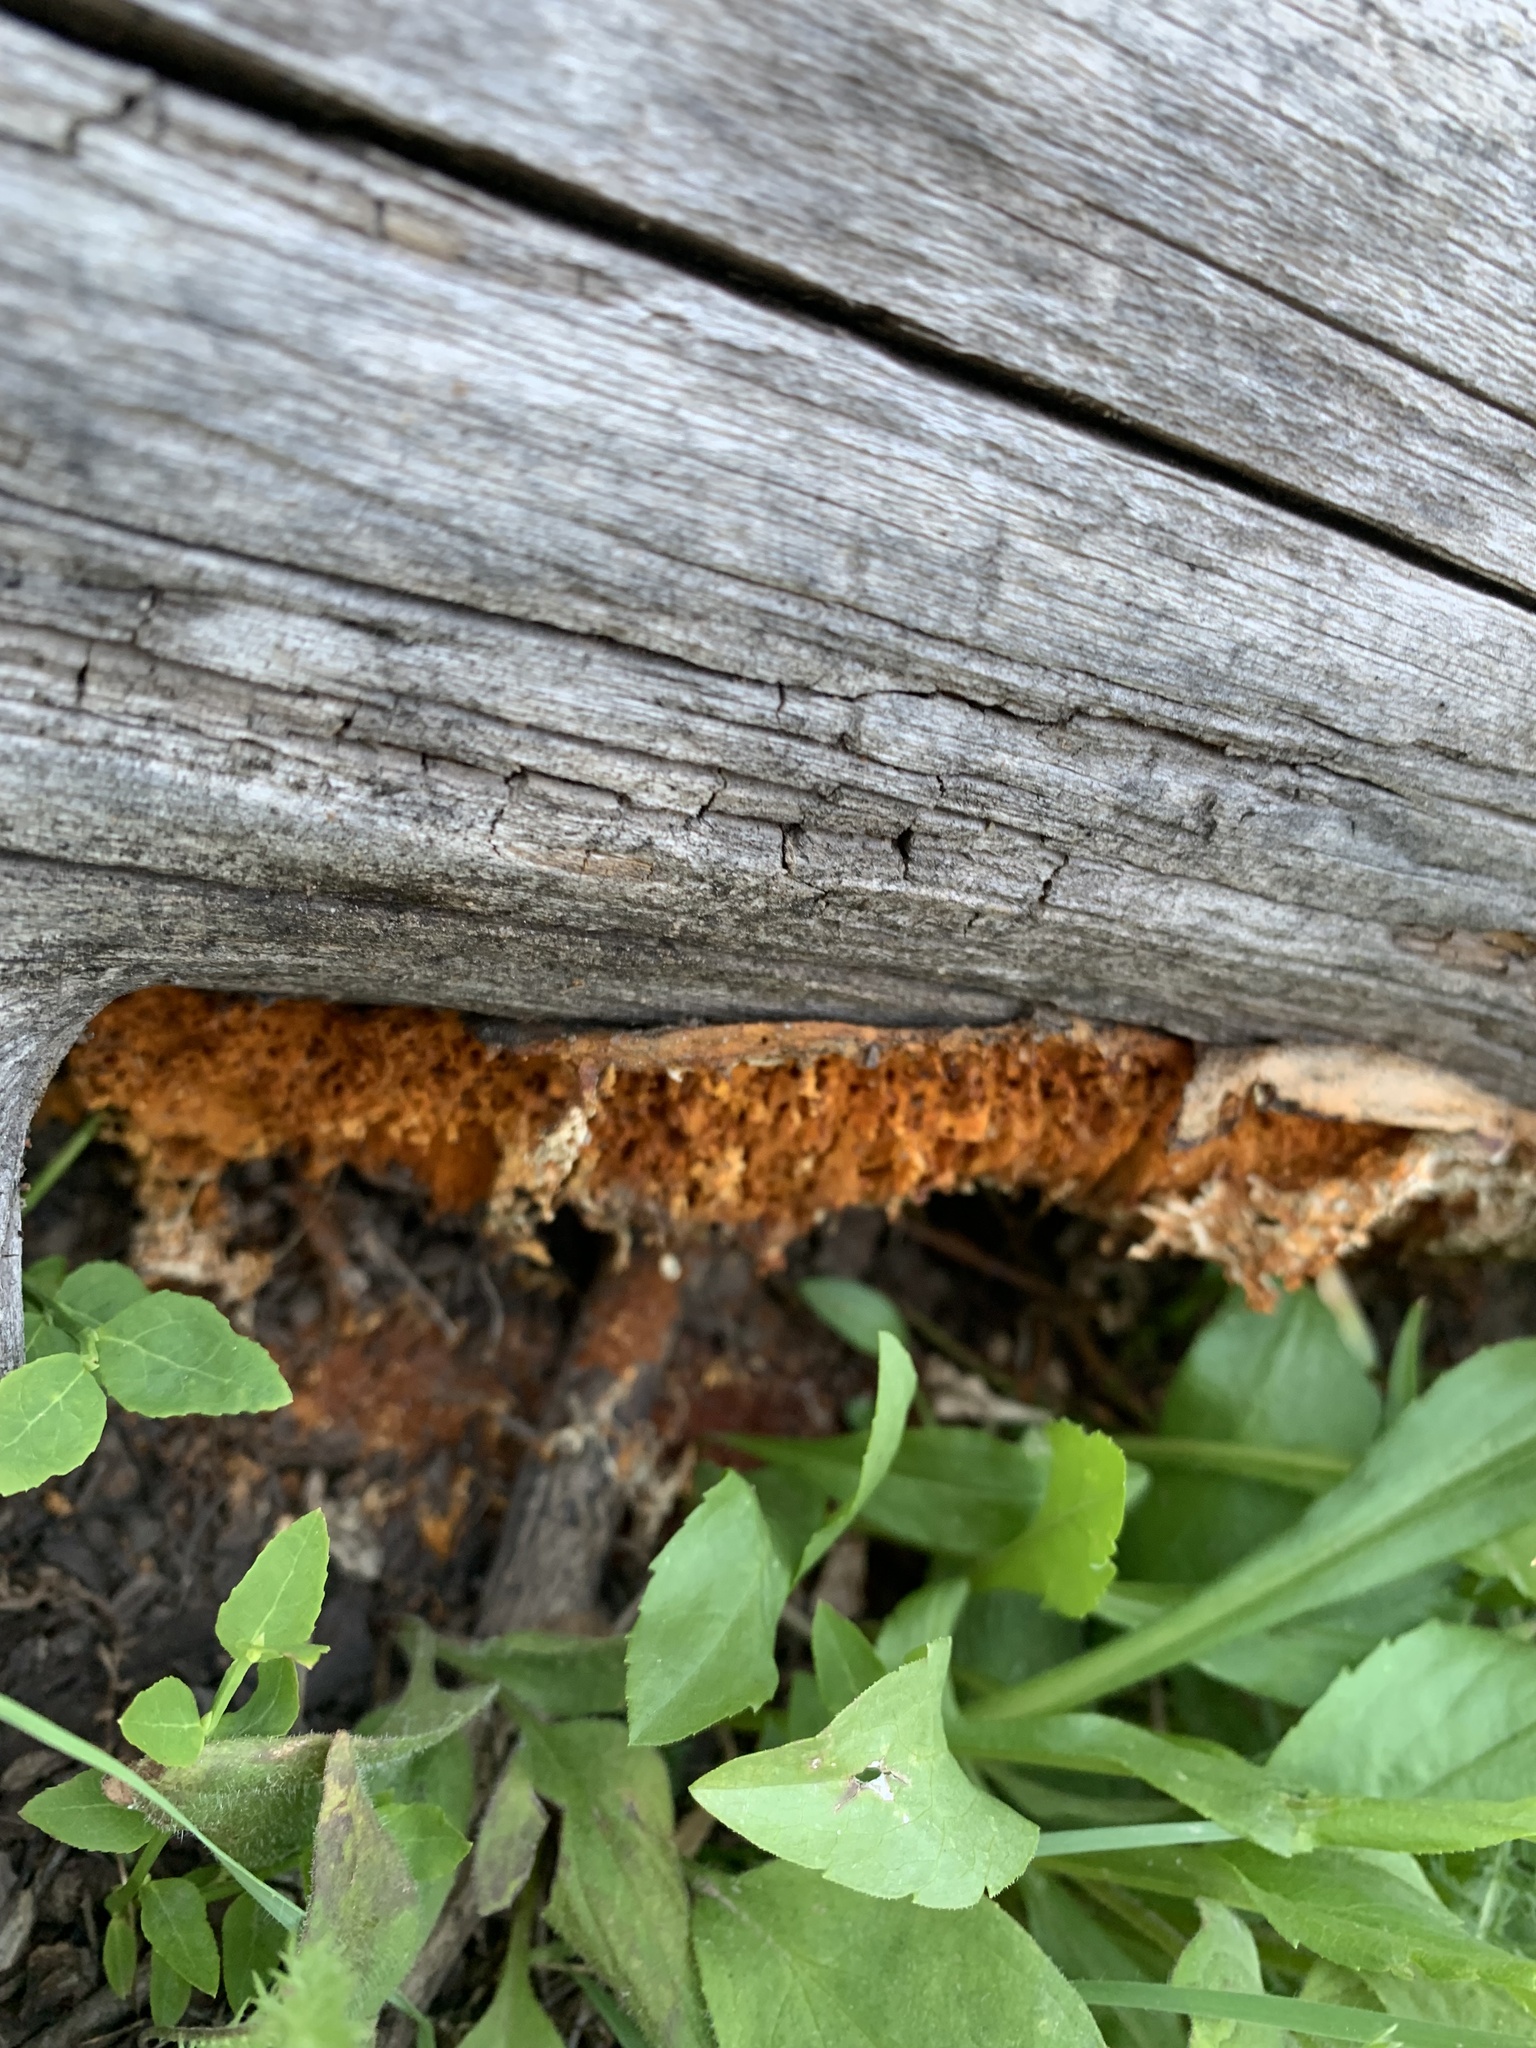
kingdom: Fungi
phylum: Basidiomycota
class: Agaricomycetes
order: Polyporales
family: Pycnoporellaceae
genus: Pycnoporellus
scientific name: Pycnoporellus alboluteus
